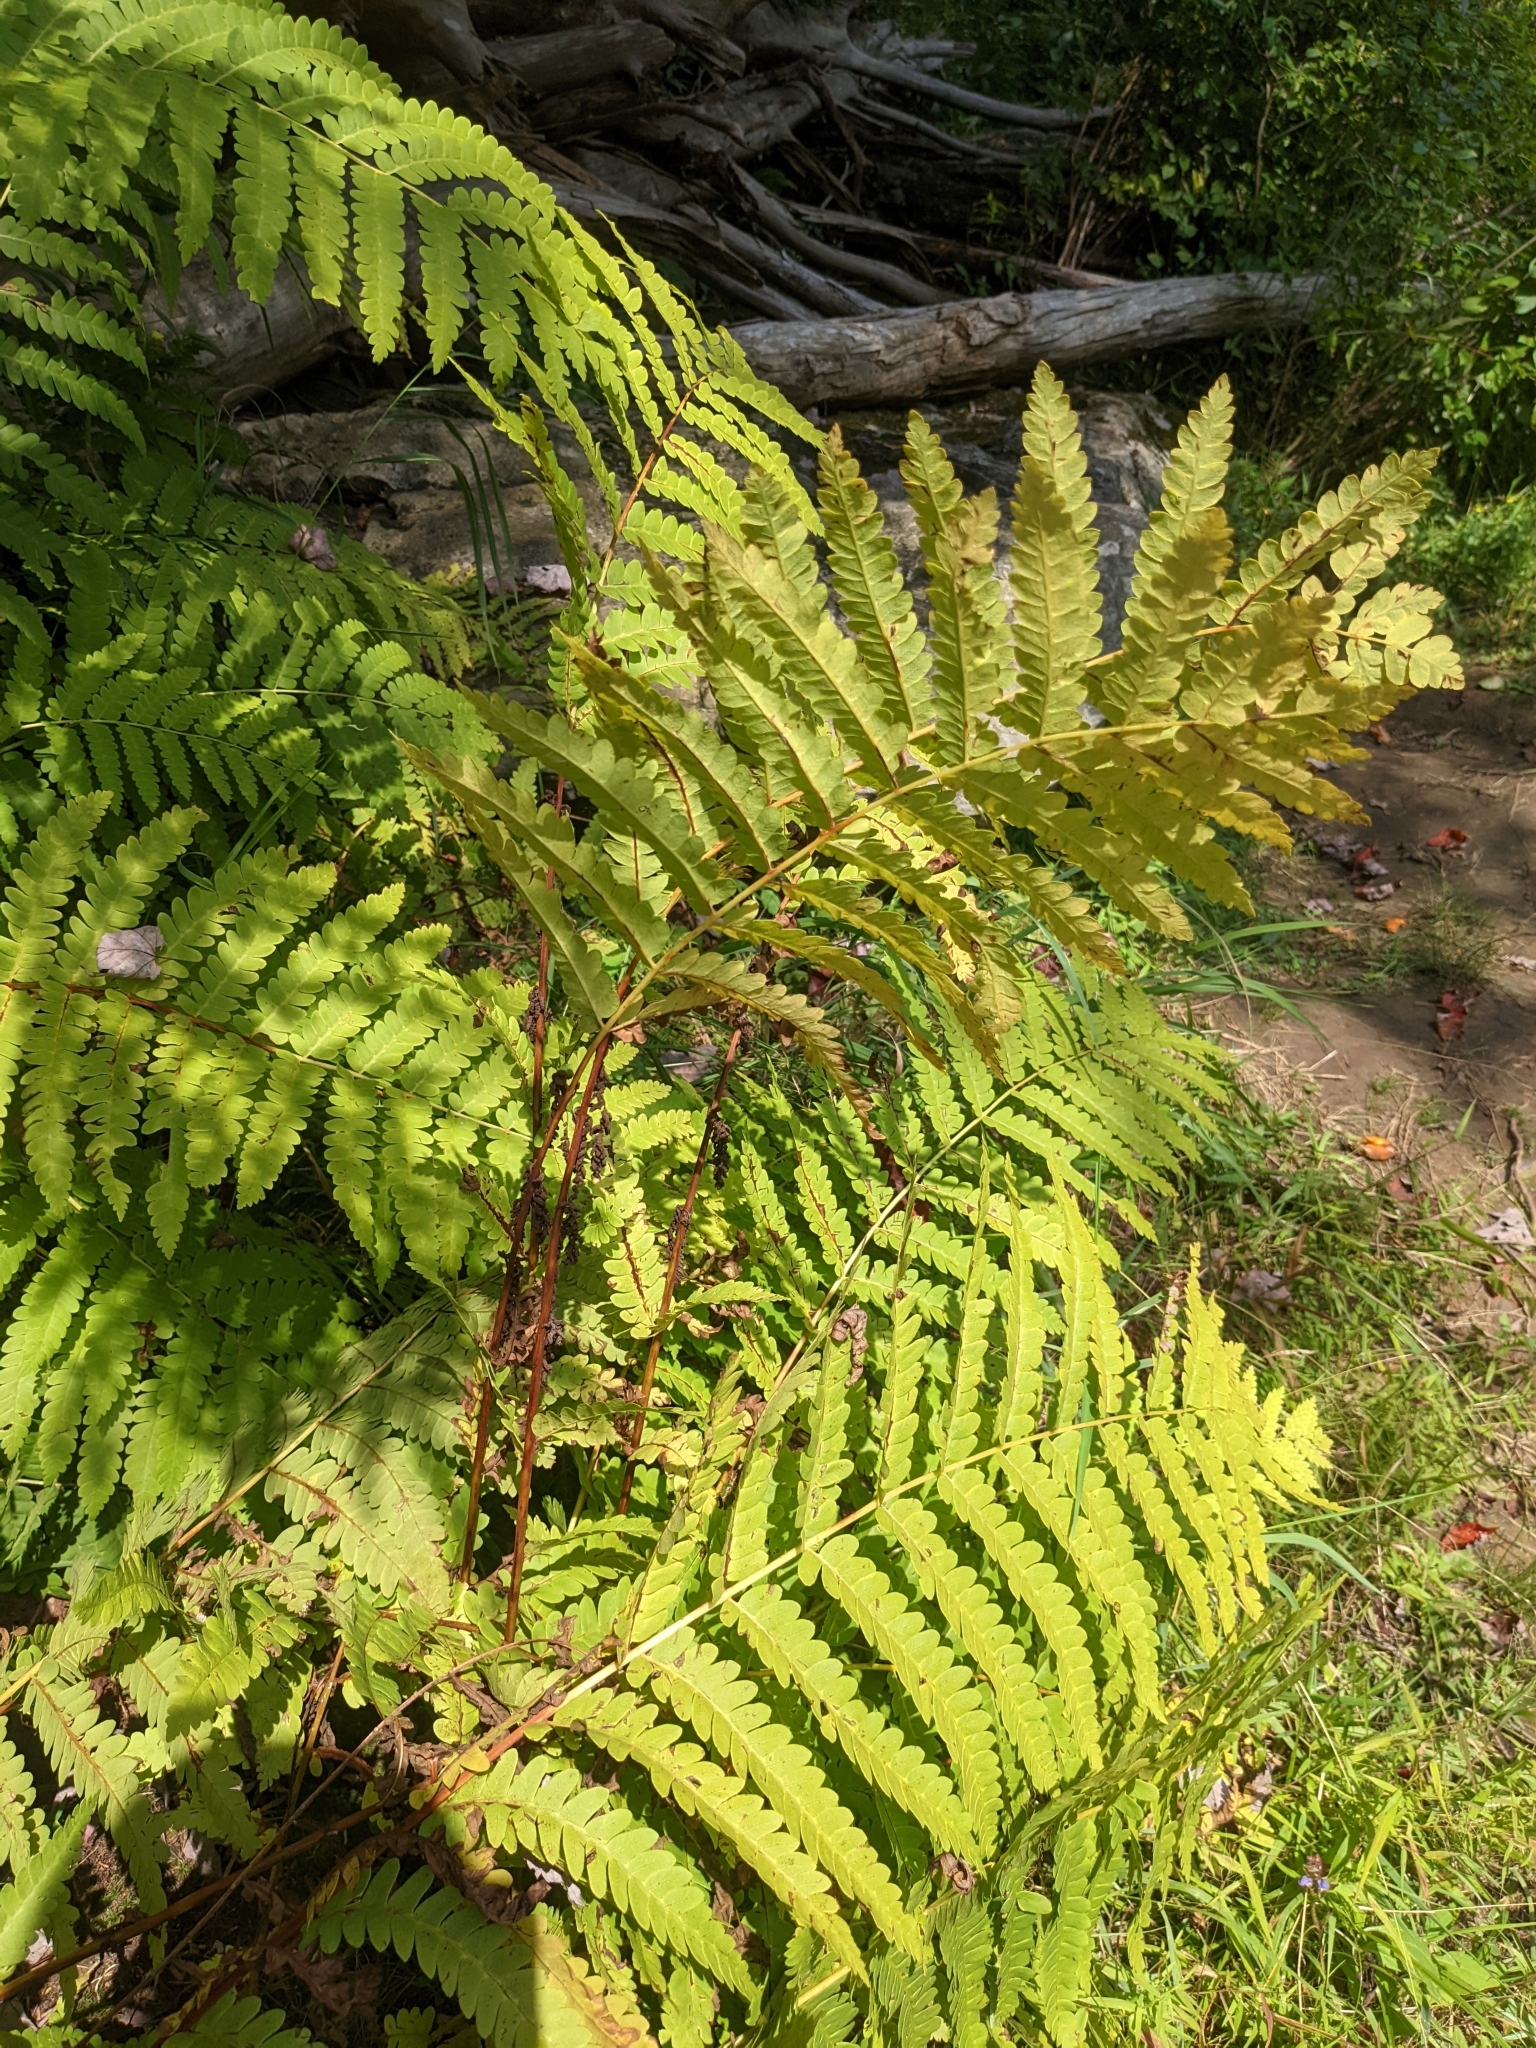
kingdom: Plantae
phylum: Tracheophyta
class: Polypodiopsida
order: Osmundales
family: Osmundaceae
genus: Claytosmunda
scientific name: Claytosmunda claytoniana
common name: Clayton's fern
